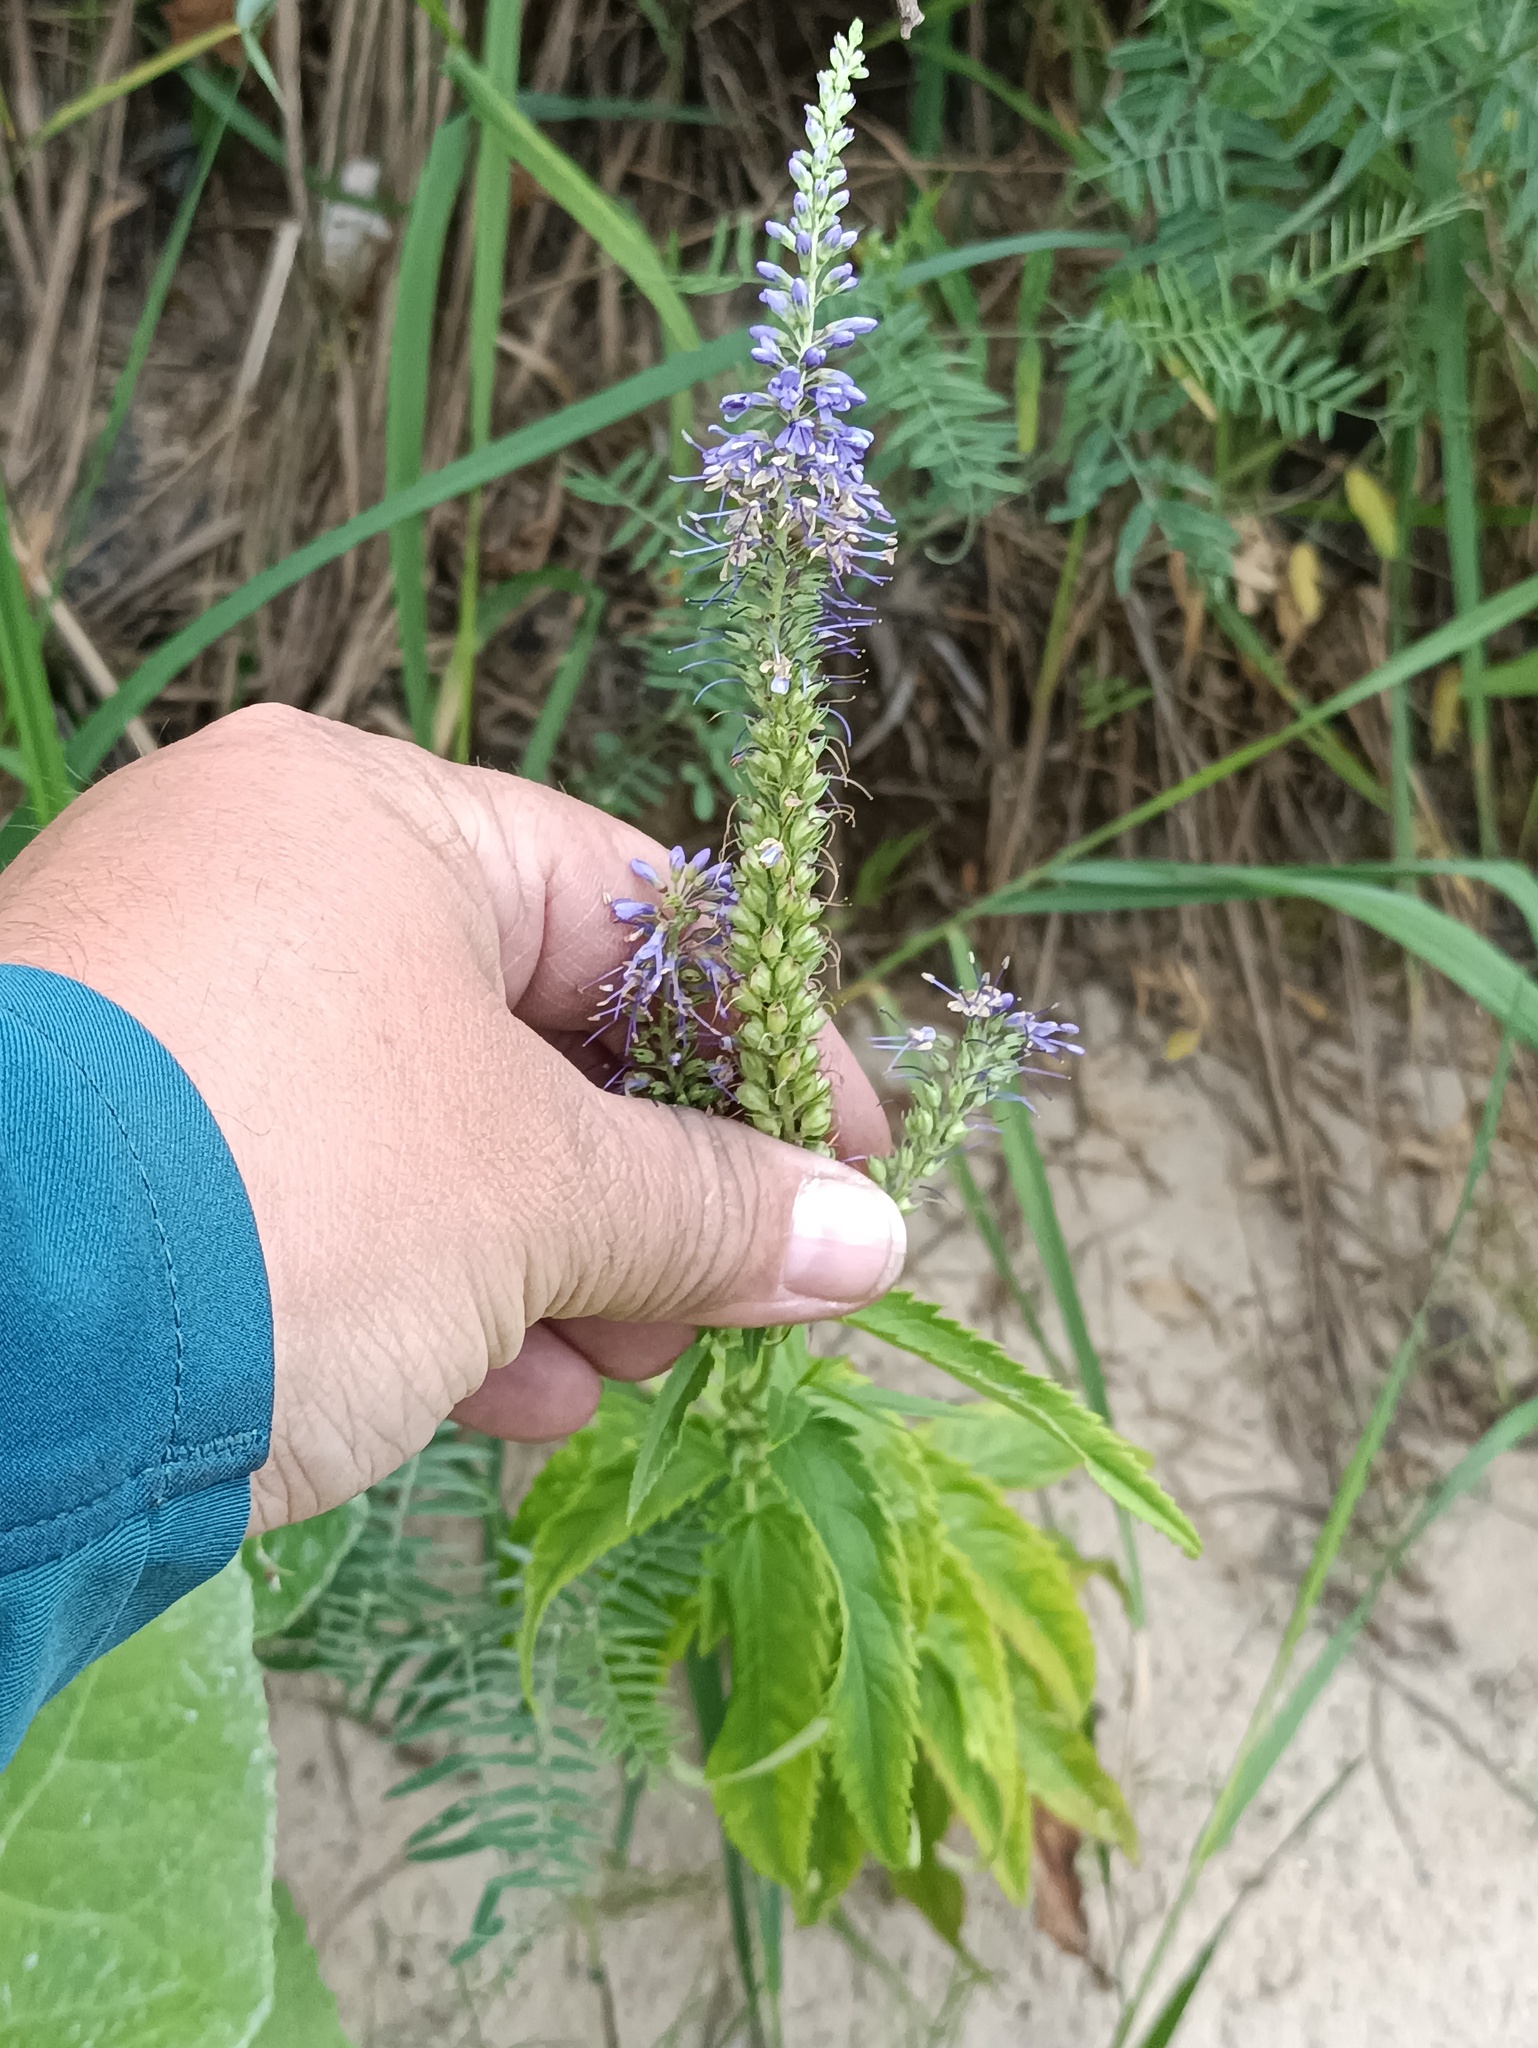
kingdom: Plantae
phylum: Tracheophyta
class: Magnoliopsida
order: Lamiales
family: Plantaginaceae
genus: Veronica
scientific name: Veronica longifolia
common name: Garden speedwell
